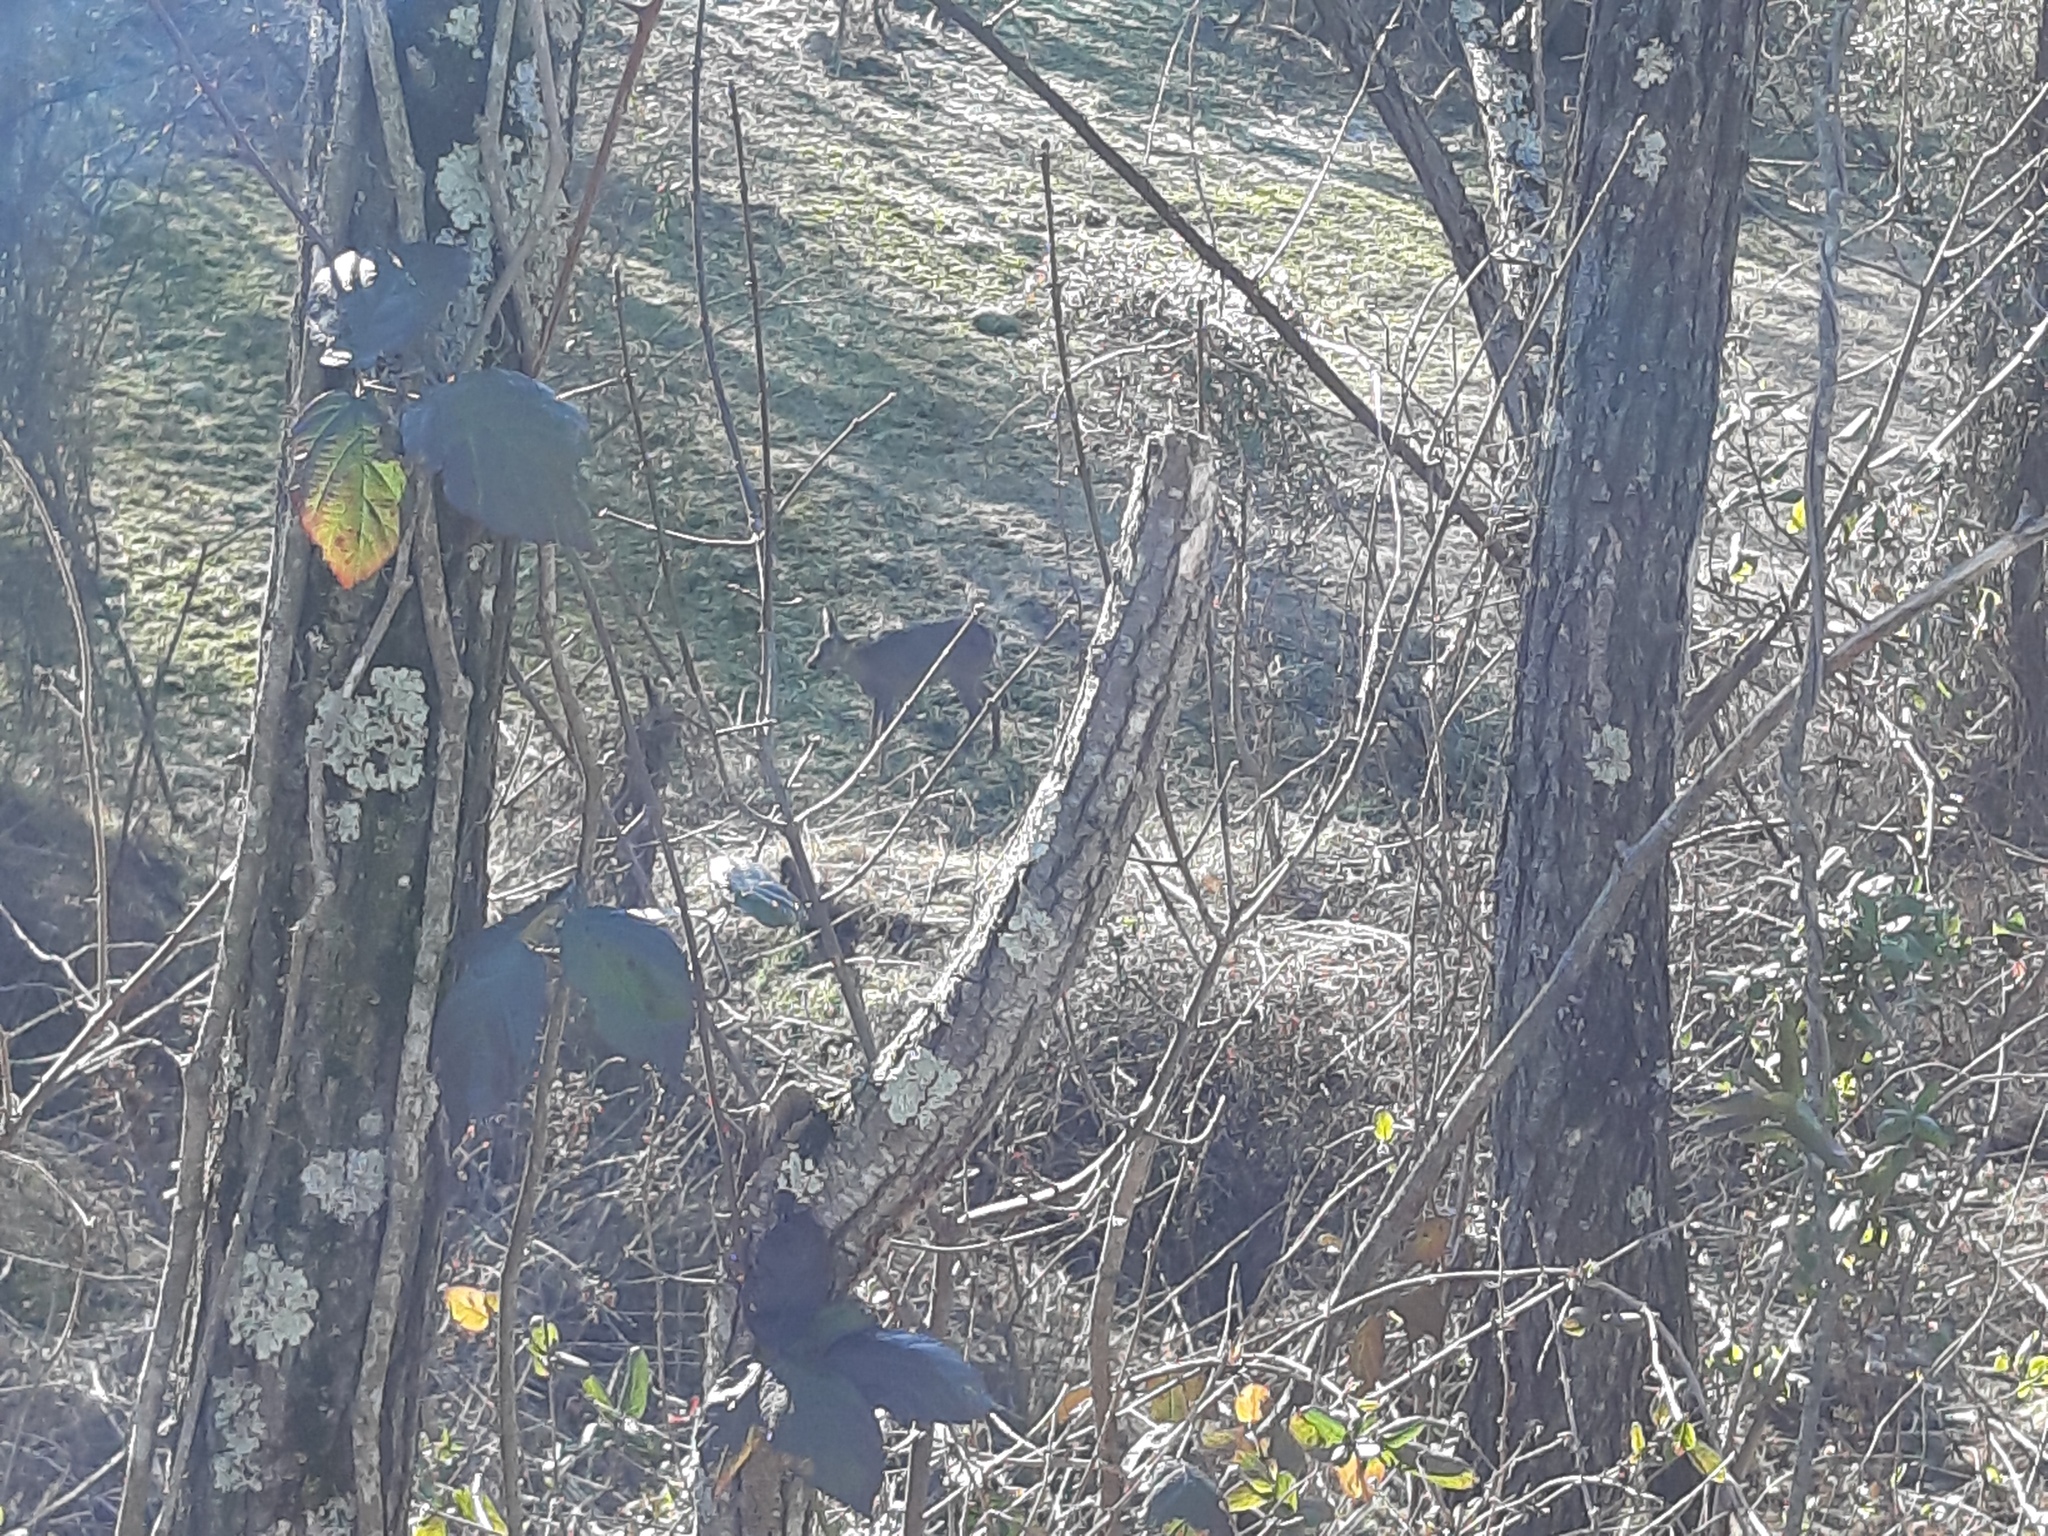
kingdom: Animalia
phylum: Chordata
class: Mammalia
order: Artiodactyla
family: Cervidae
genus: Capreolus
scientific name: Capreolus capreolus
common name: Western roe deer
